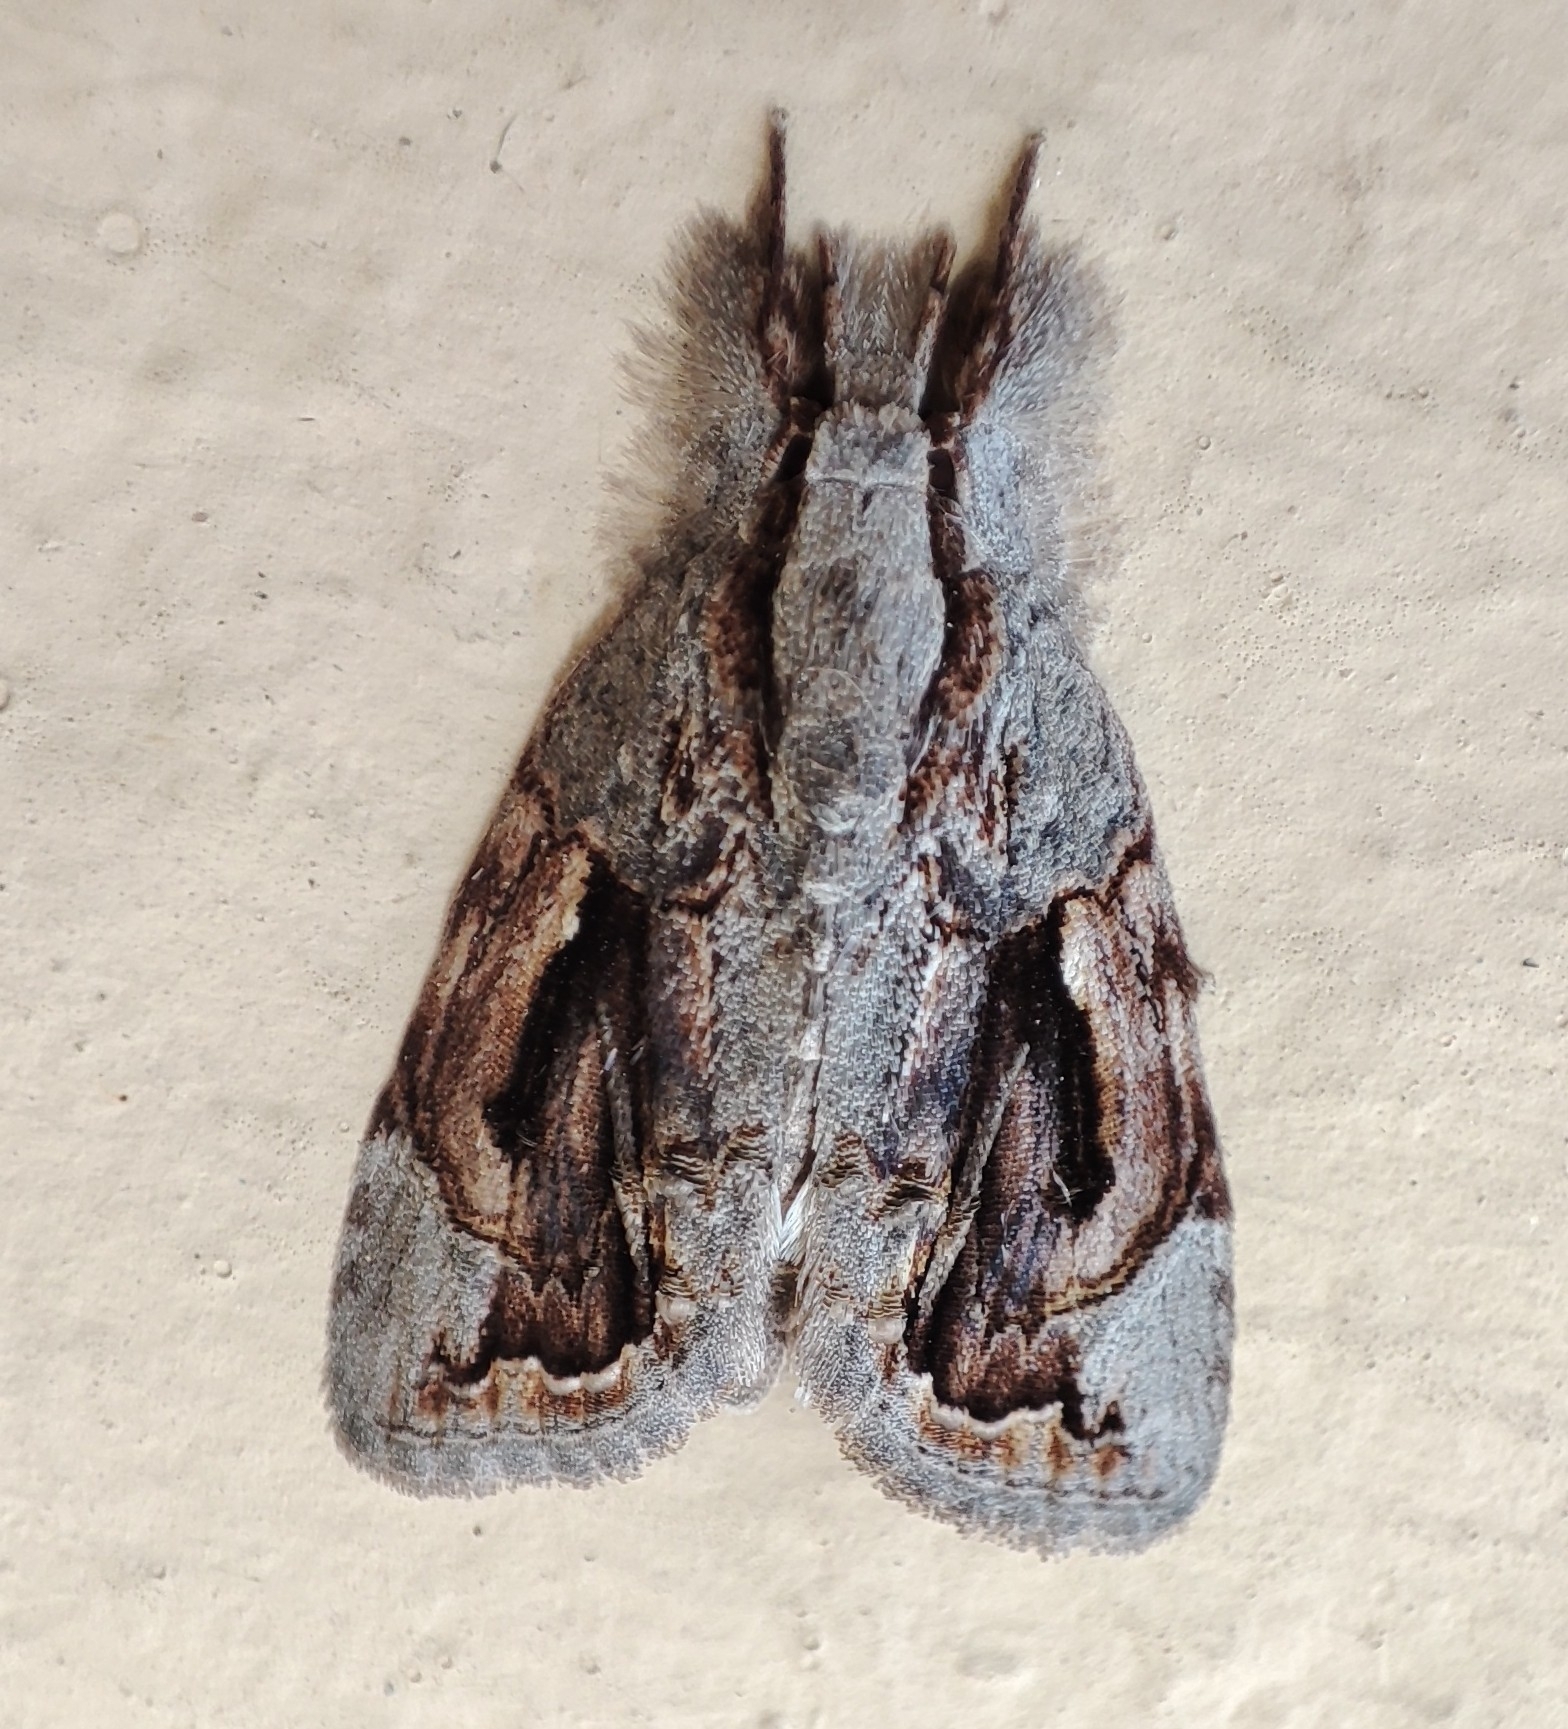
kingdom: Animalia
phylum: Arthropoda
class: Insecta
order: Lepidoptera
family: Nolidae
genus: Selepa
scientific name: Selepa ferrofusa
